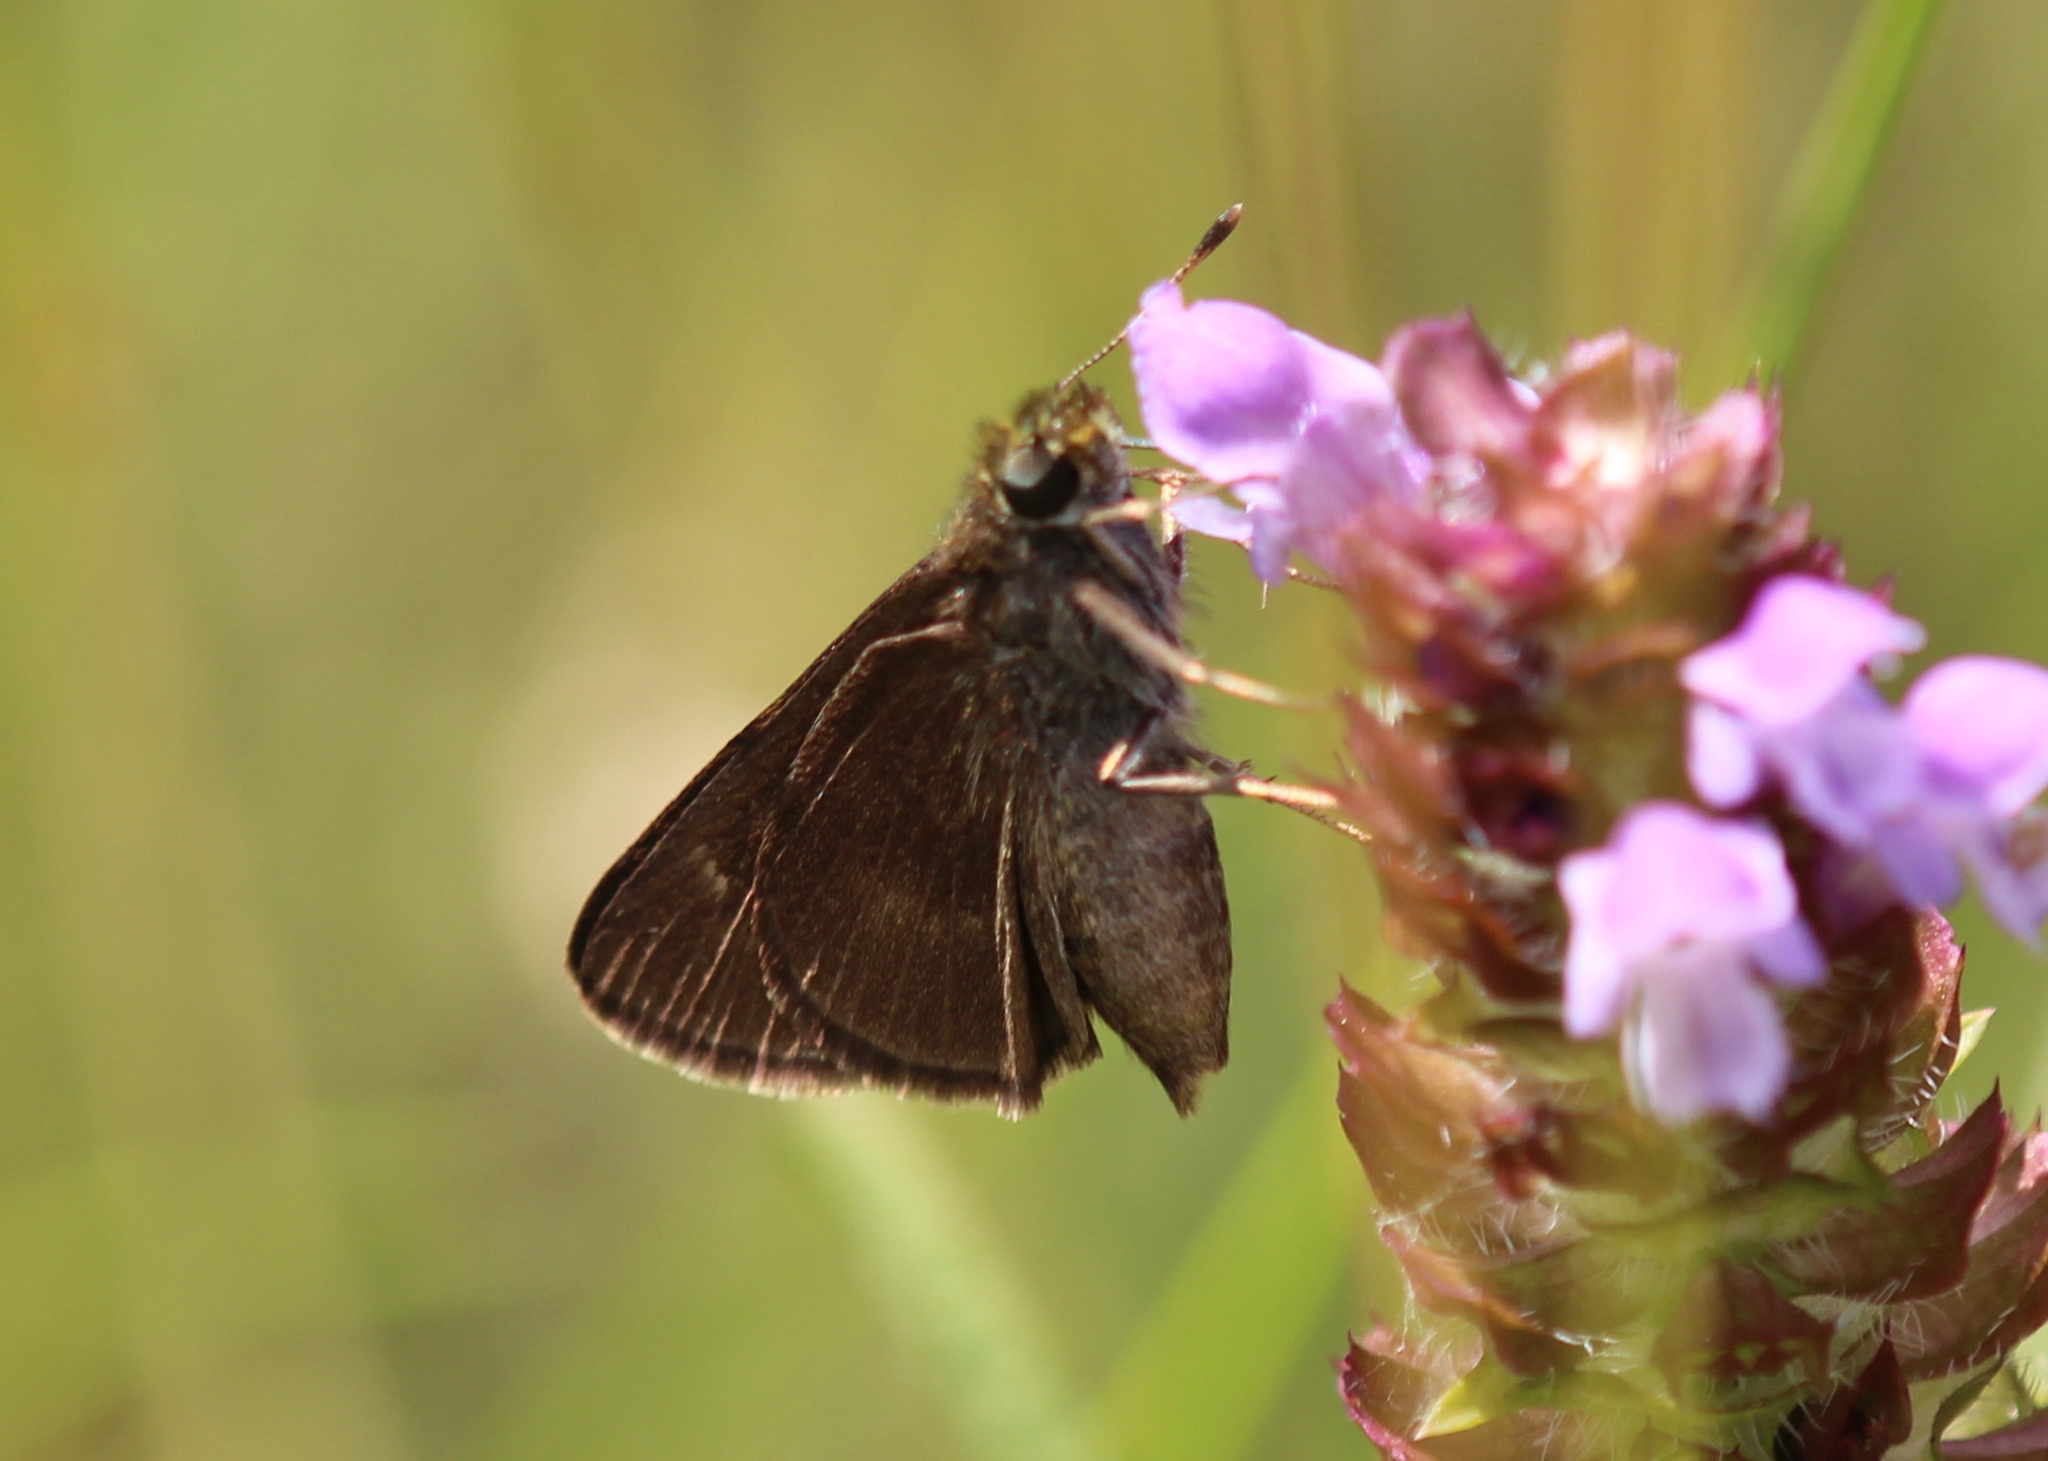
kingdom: Animalia
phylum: Arthropoda
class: Insecta
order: Lepidoptera
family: Hesperiidae
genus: Euphyes
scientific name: Euphyes vestris
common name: Dun skipper
